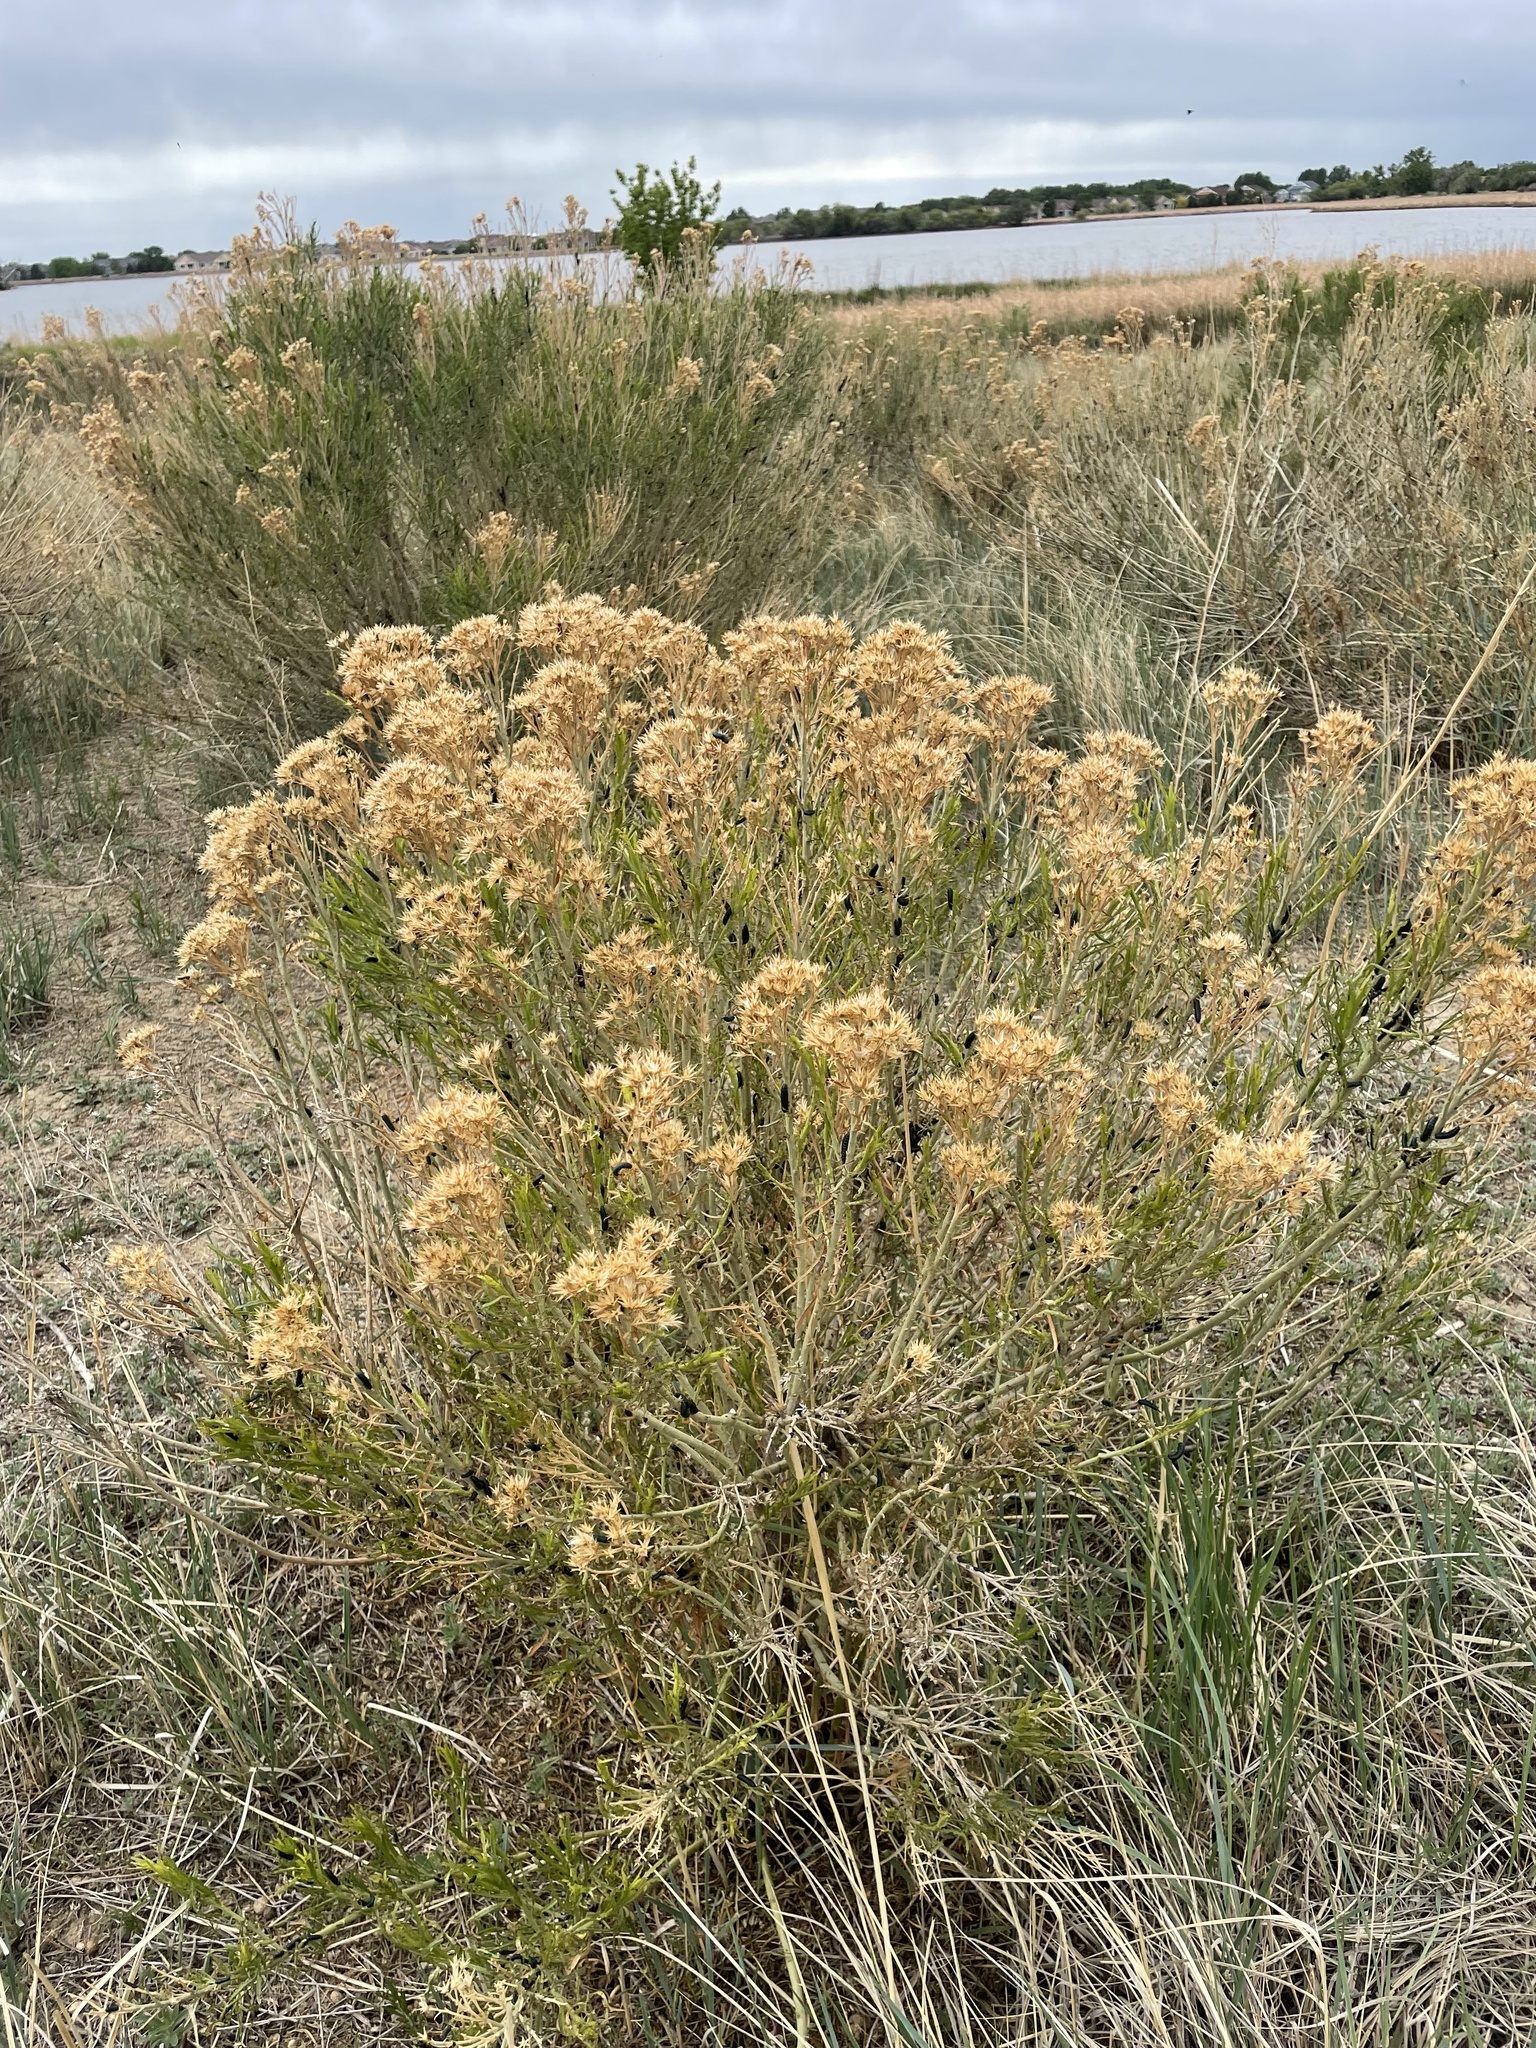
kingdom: Animalia
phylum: Arthropoda
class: Insecta
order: Coleoptera
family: Chrysomelidae
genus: Trirhabda
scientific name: Trirhabda nitidicollis
